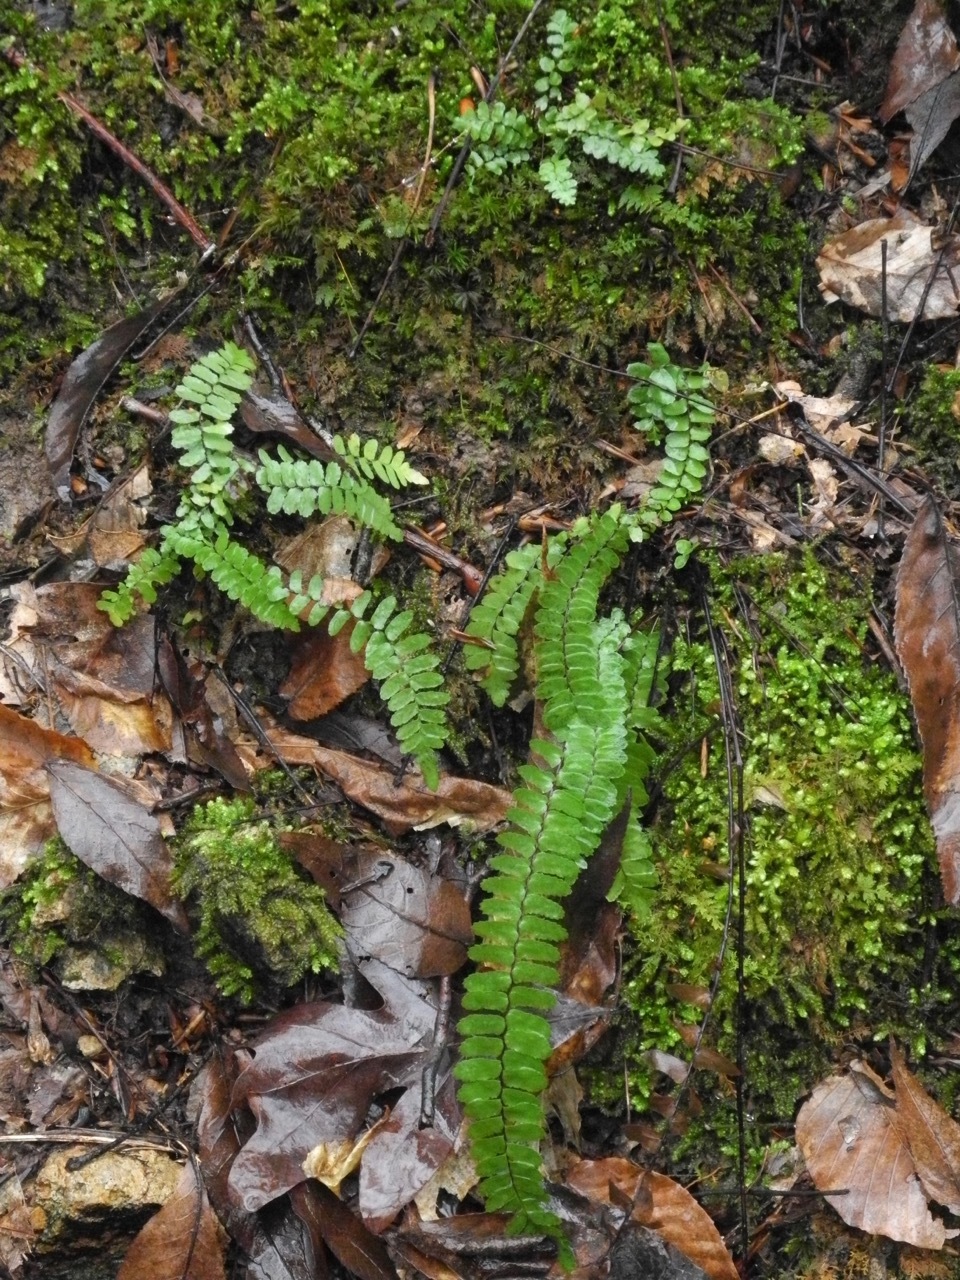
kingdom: Plantae
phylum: Tracheophyta
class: Polypodiopsida
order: Polypodiales
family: Aspleniaceae
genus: Asplenium
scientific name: Asplenium platyneuron
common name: Ebony spleenwort
